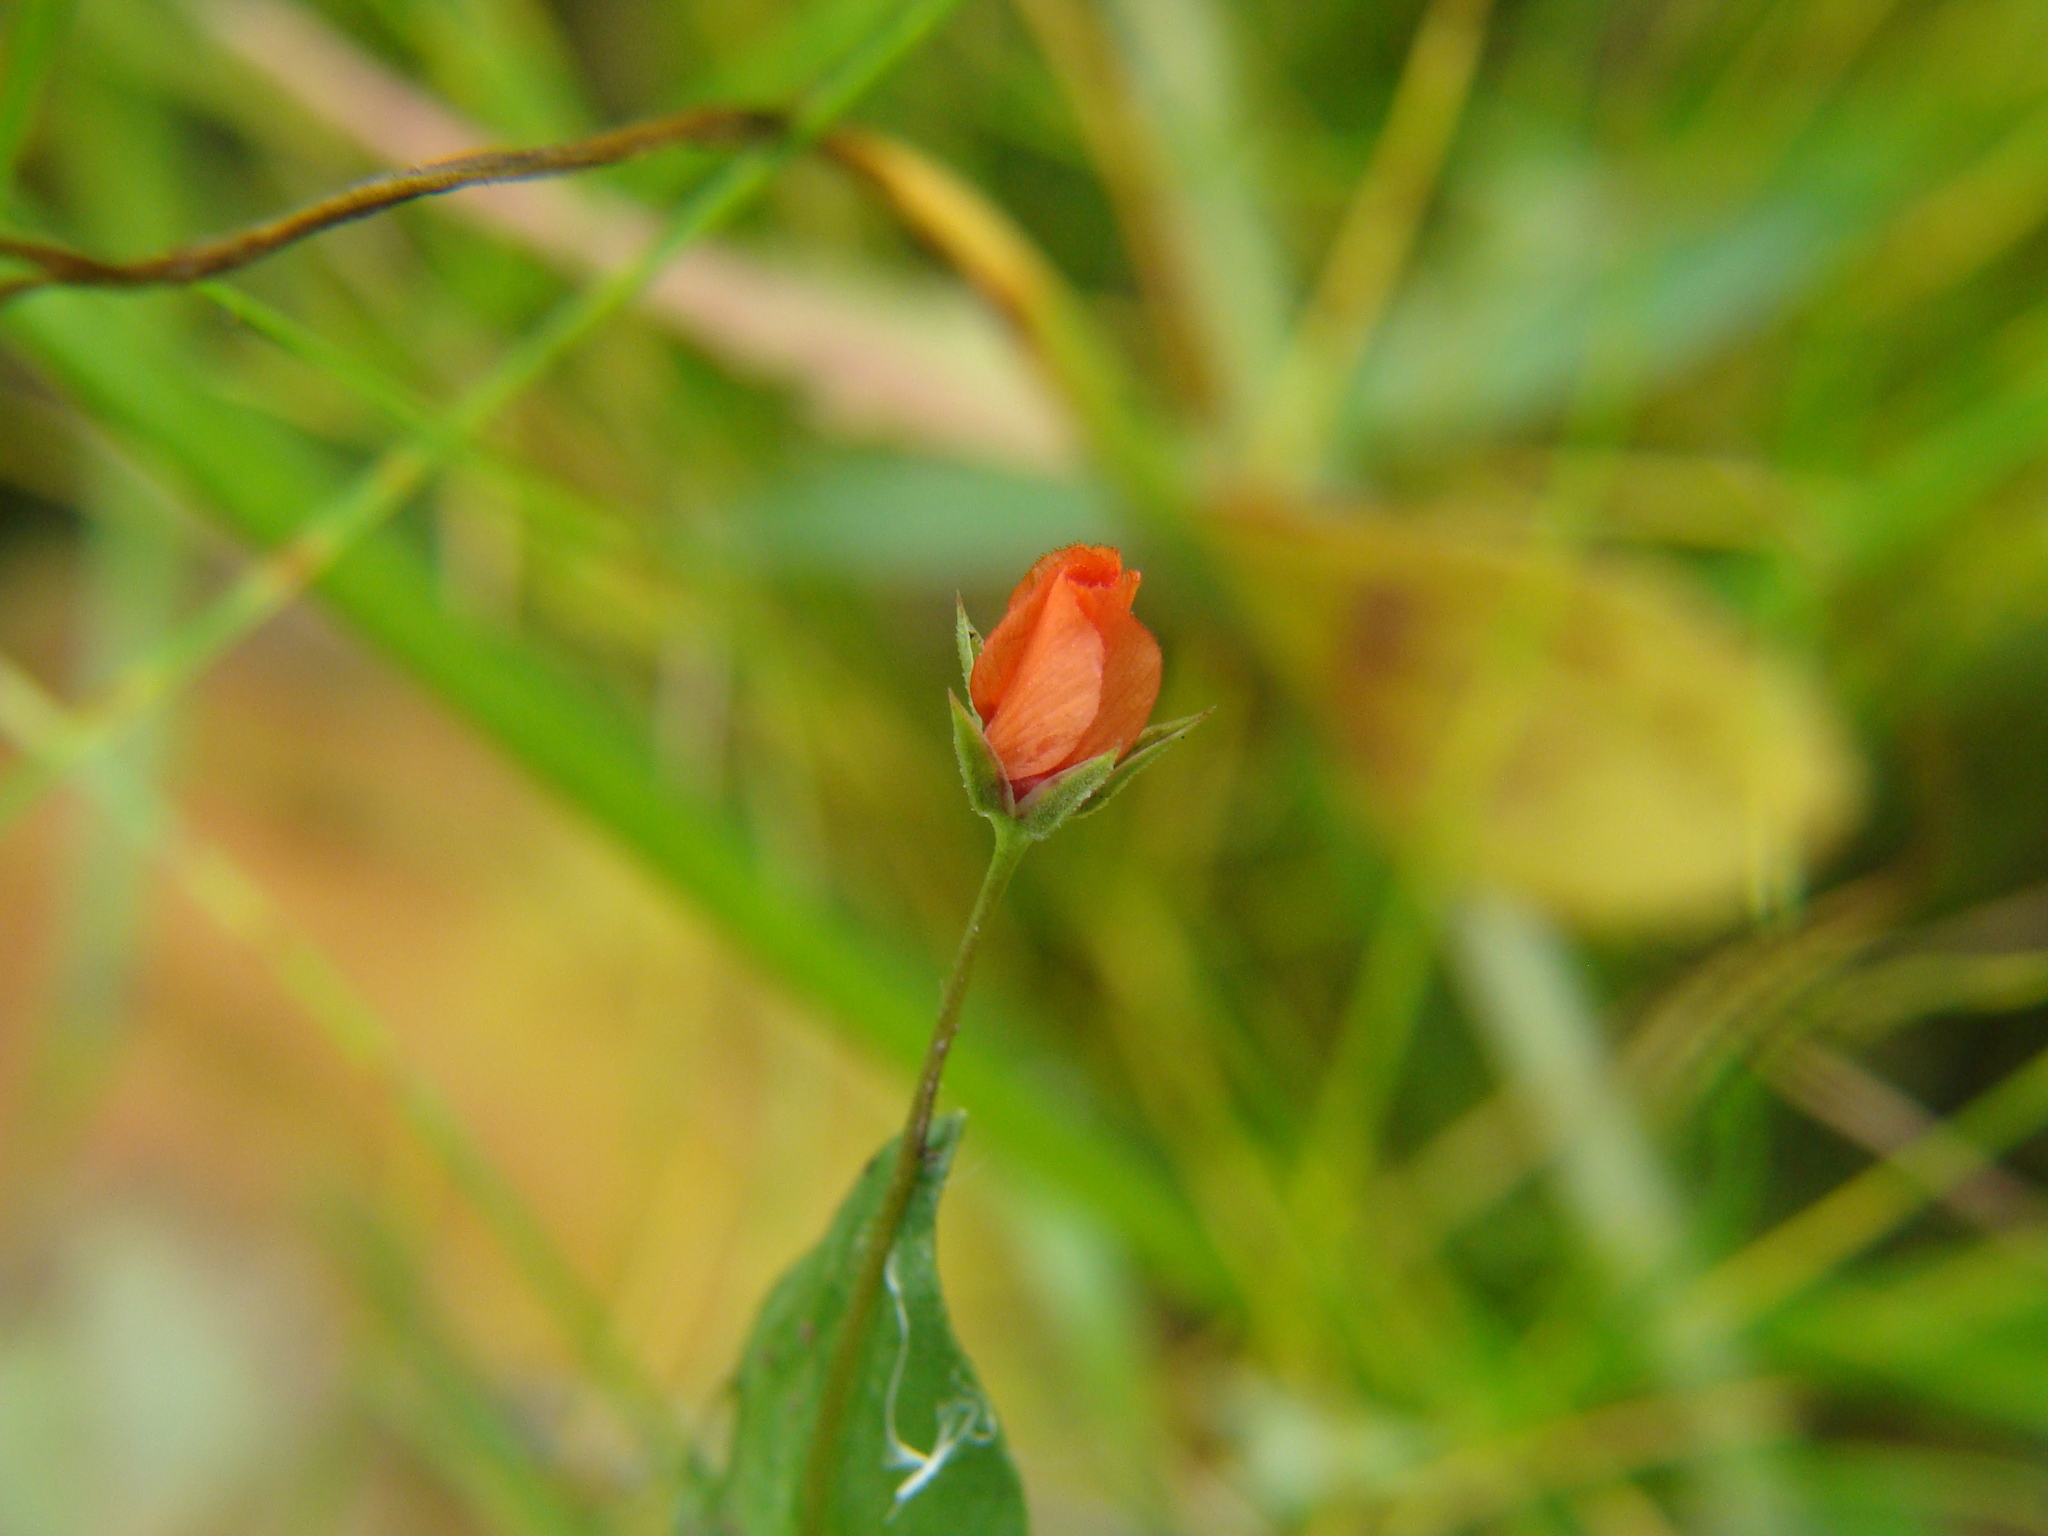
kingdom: Plantae
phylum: Tracheophyta
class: Magnoliopsida
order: Ericales
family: Primulaceae
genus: Lysimachia
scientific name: Lysimachia arvensis
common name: Scarlet pimpernel
